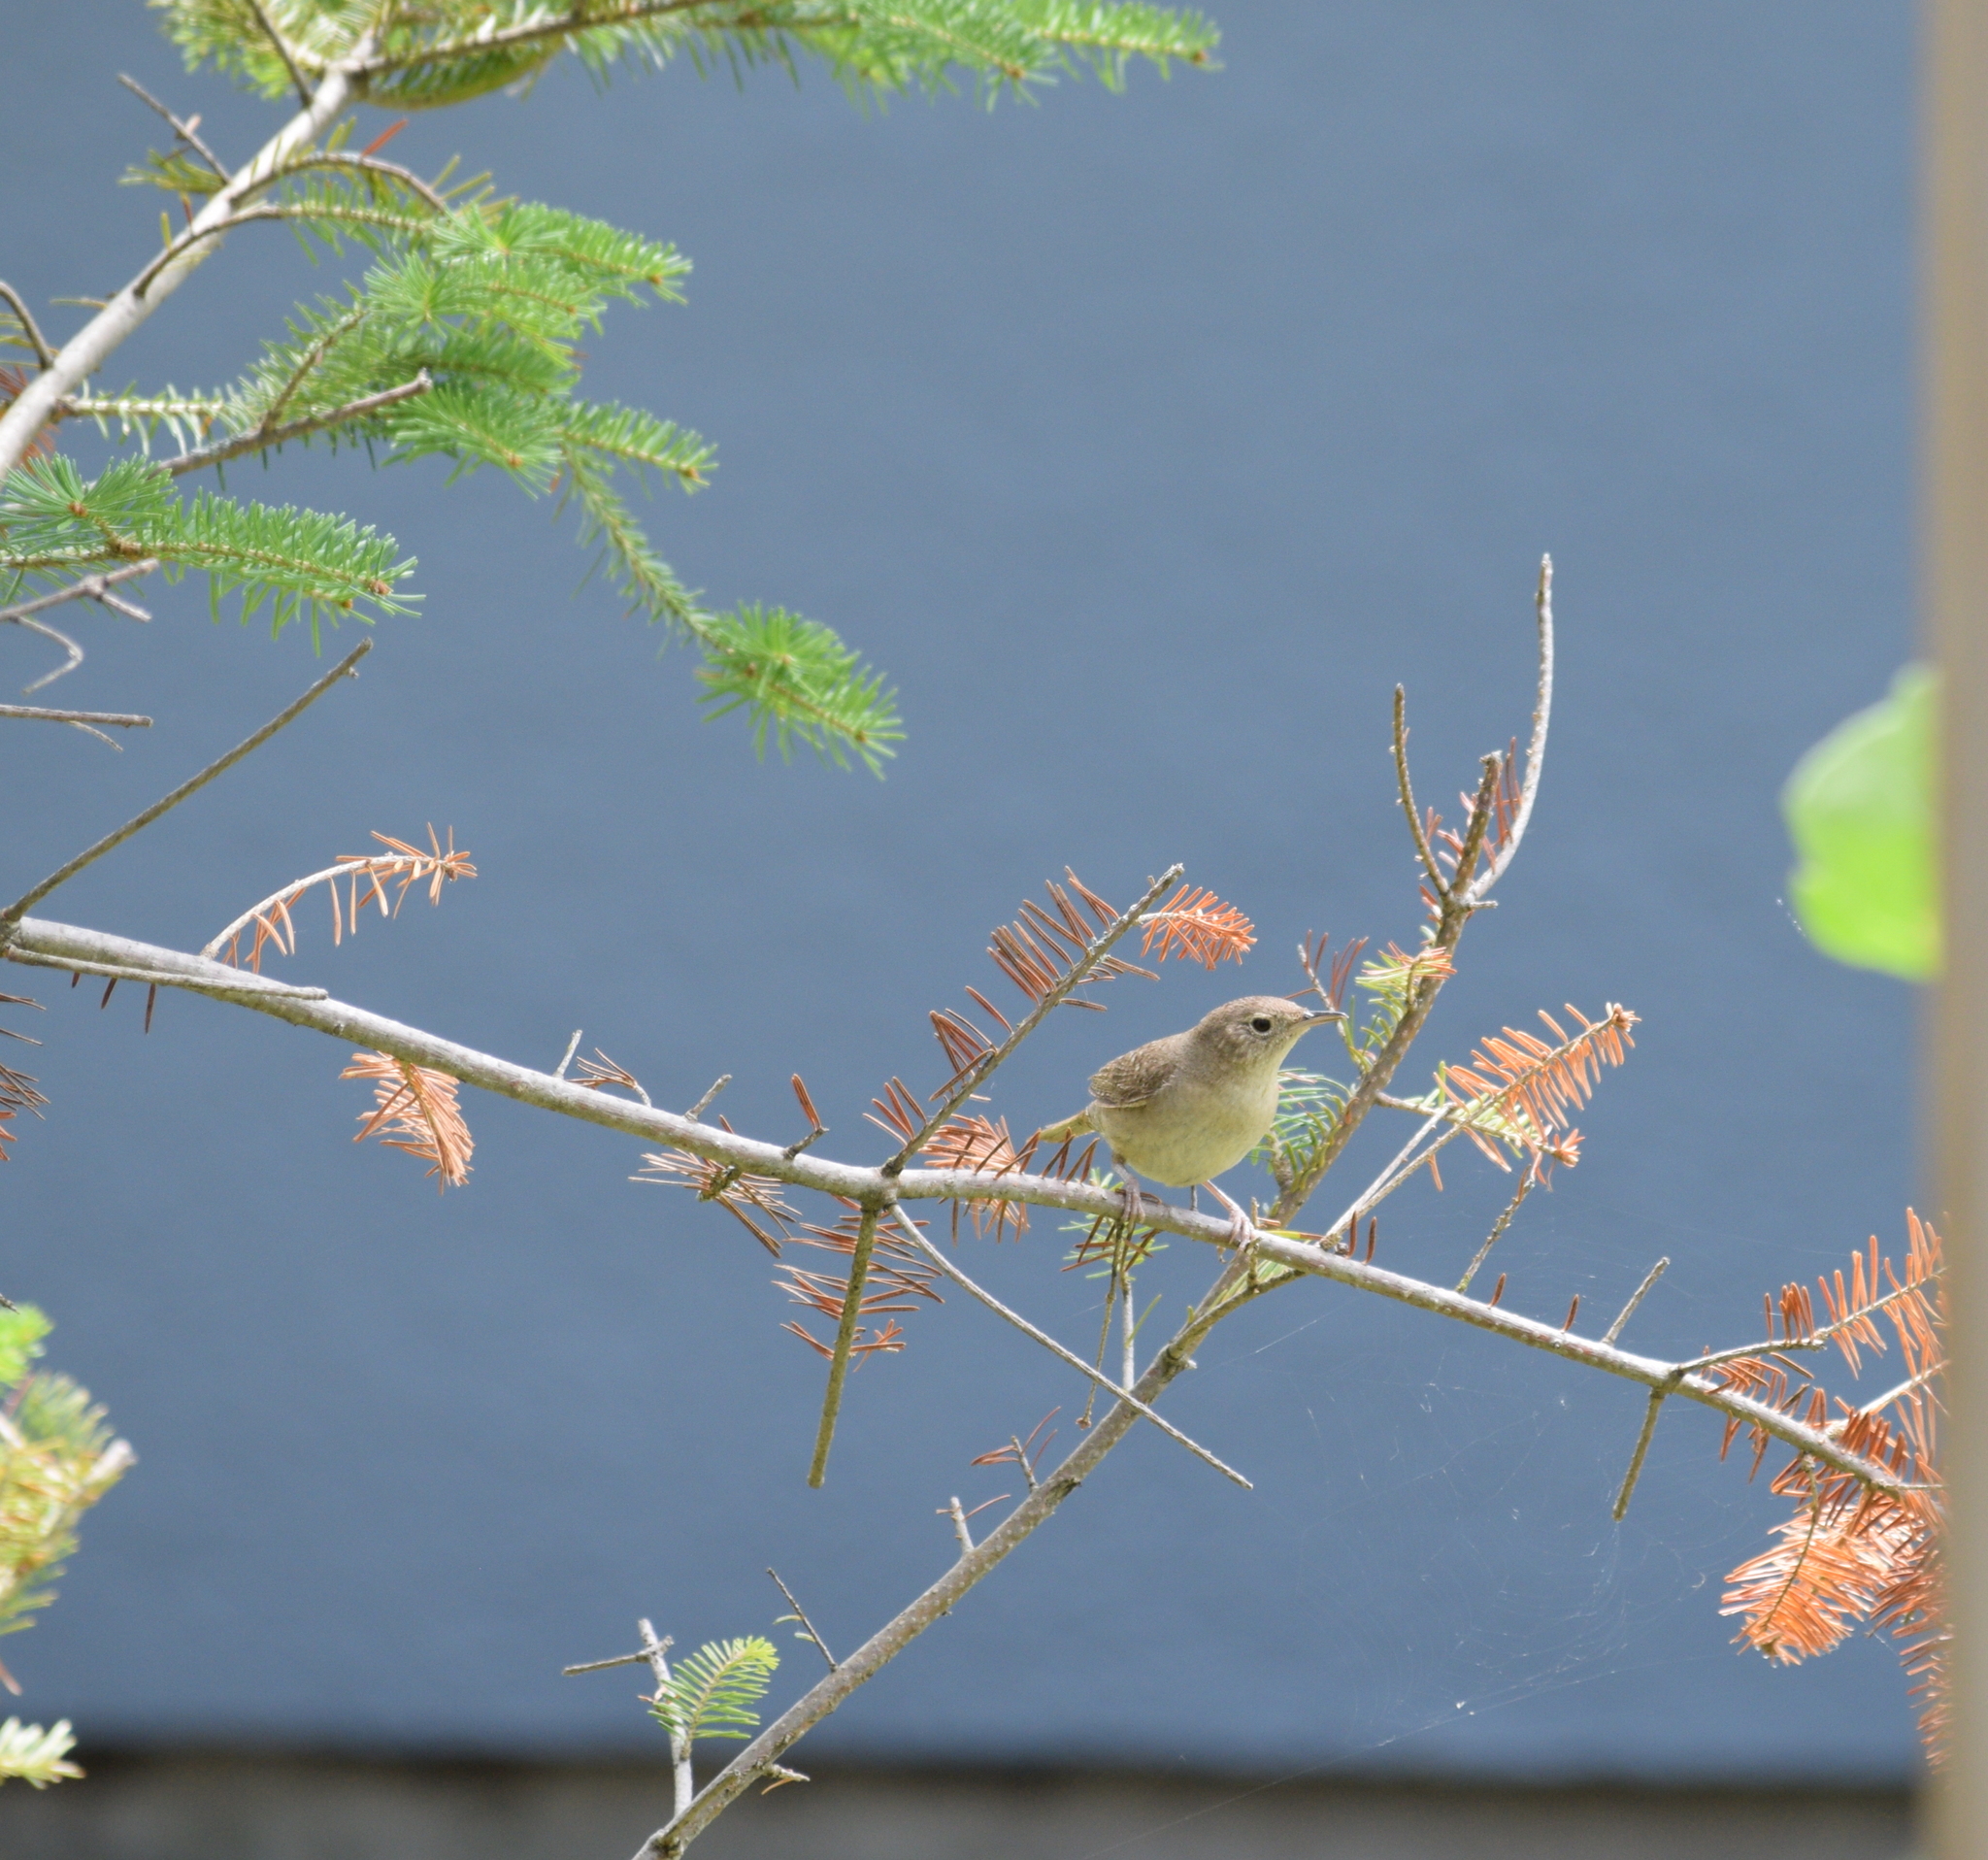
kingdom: Animalia
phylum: Chordata
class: Aves
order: Passeriformes
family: Troglodytidae
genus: Troglodytes
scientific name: Troglodytes aedon
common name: House wren
